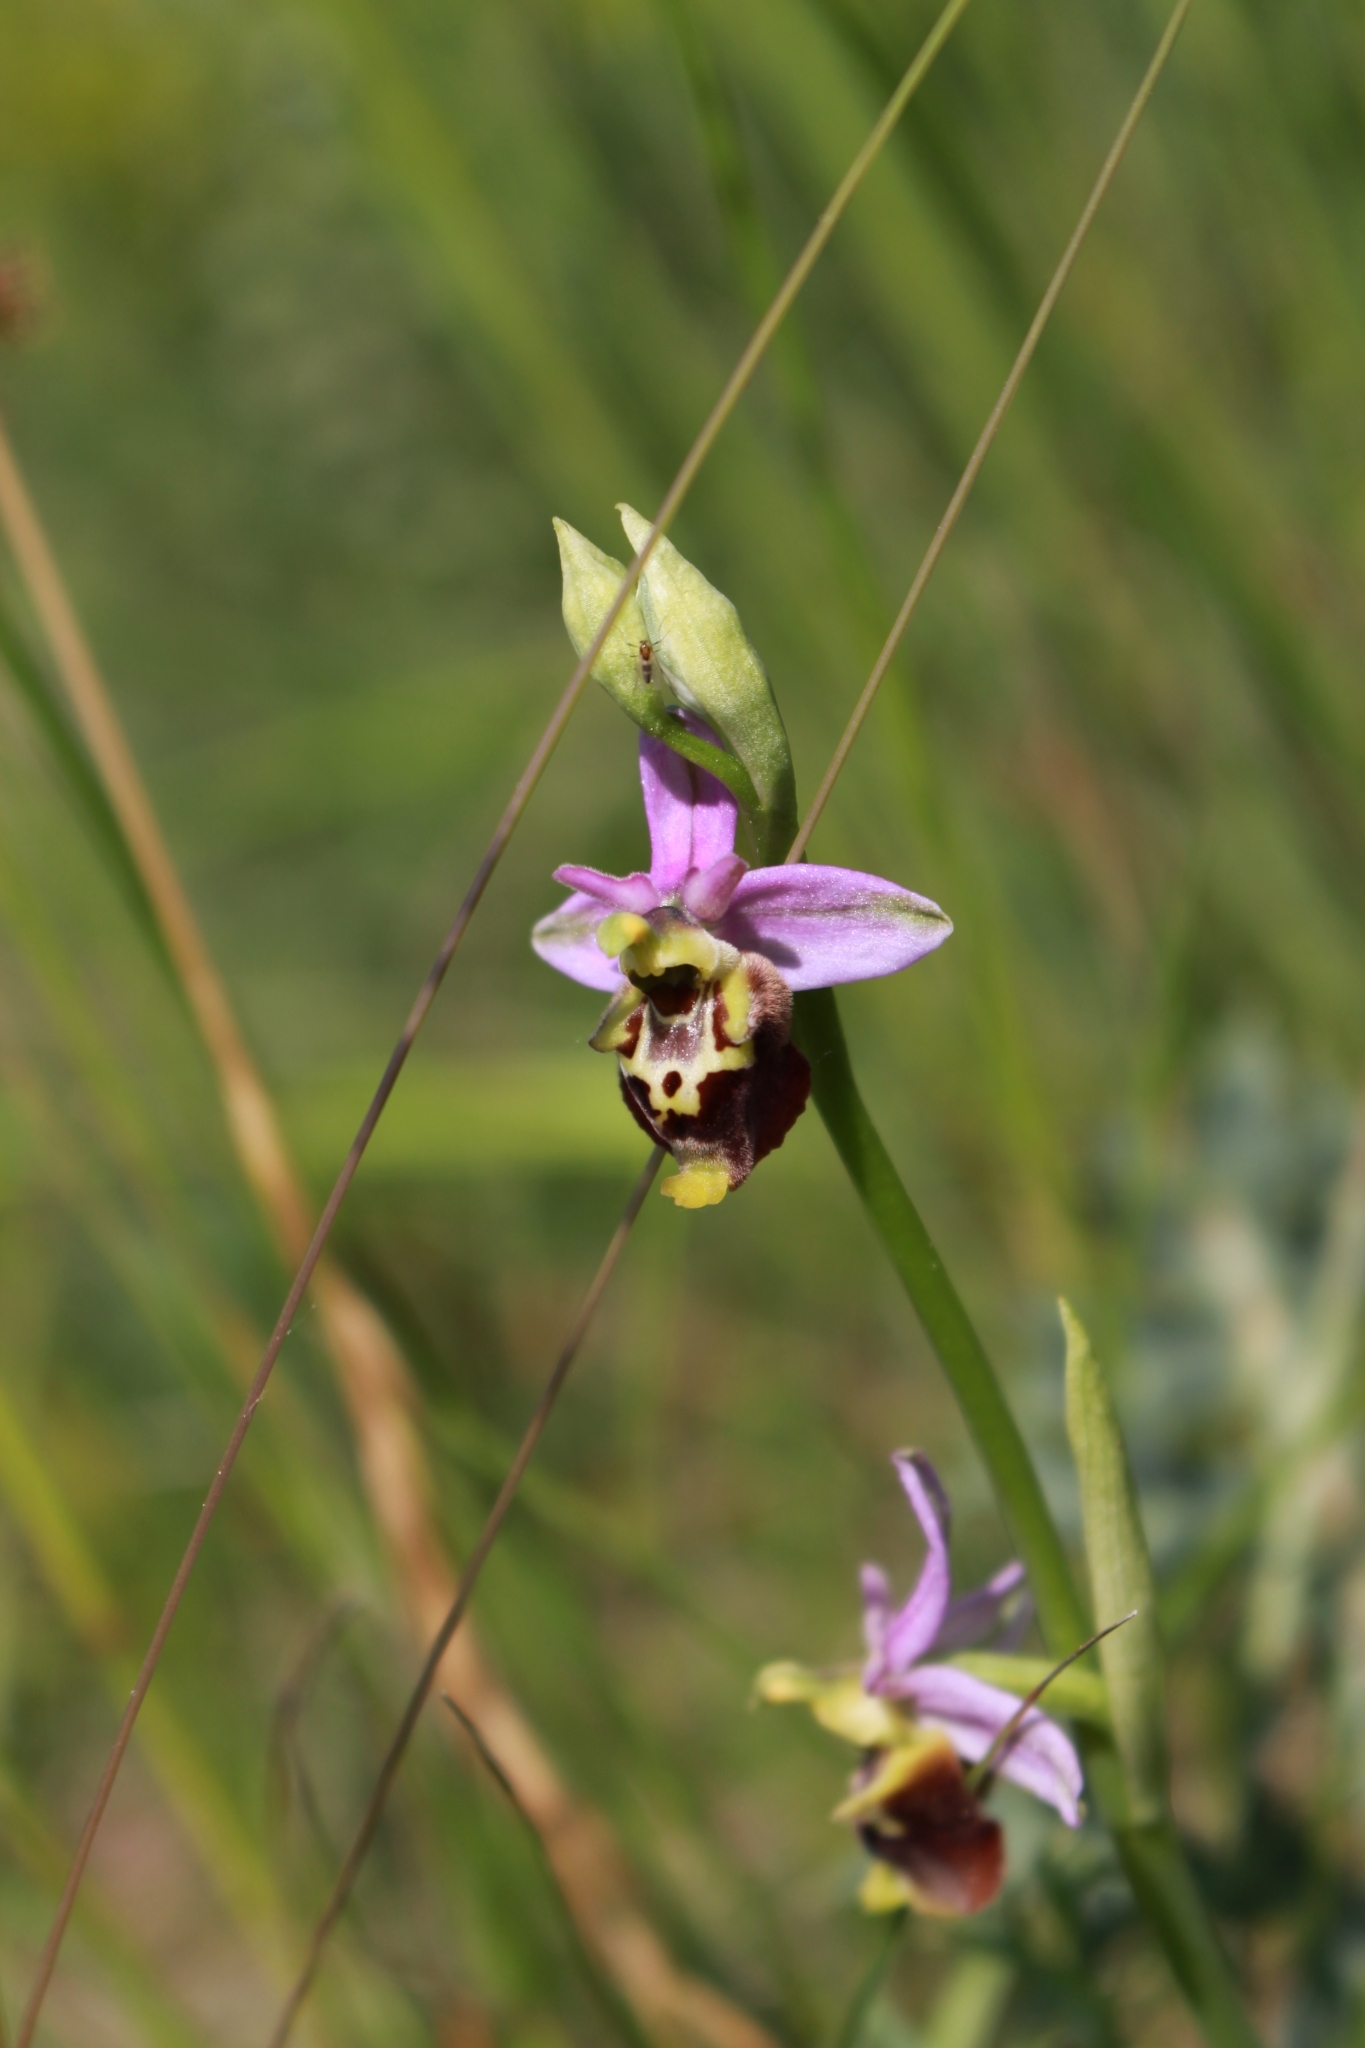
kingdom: Plantae
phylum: Tracheophyta
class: Liliopsida
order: Asparagales
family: Orchidaceae
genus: Ophrys
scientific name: Ophrys holosericea
